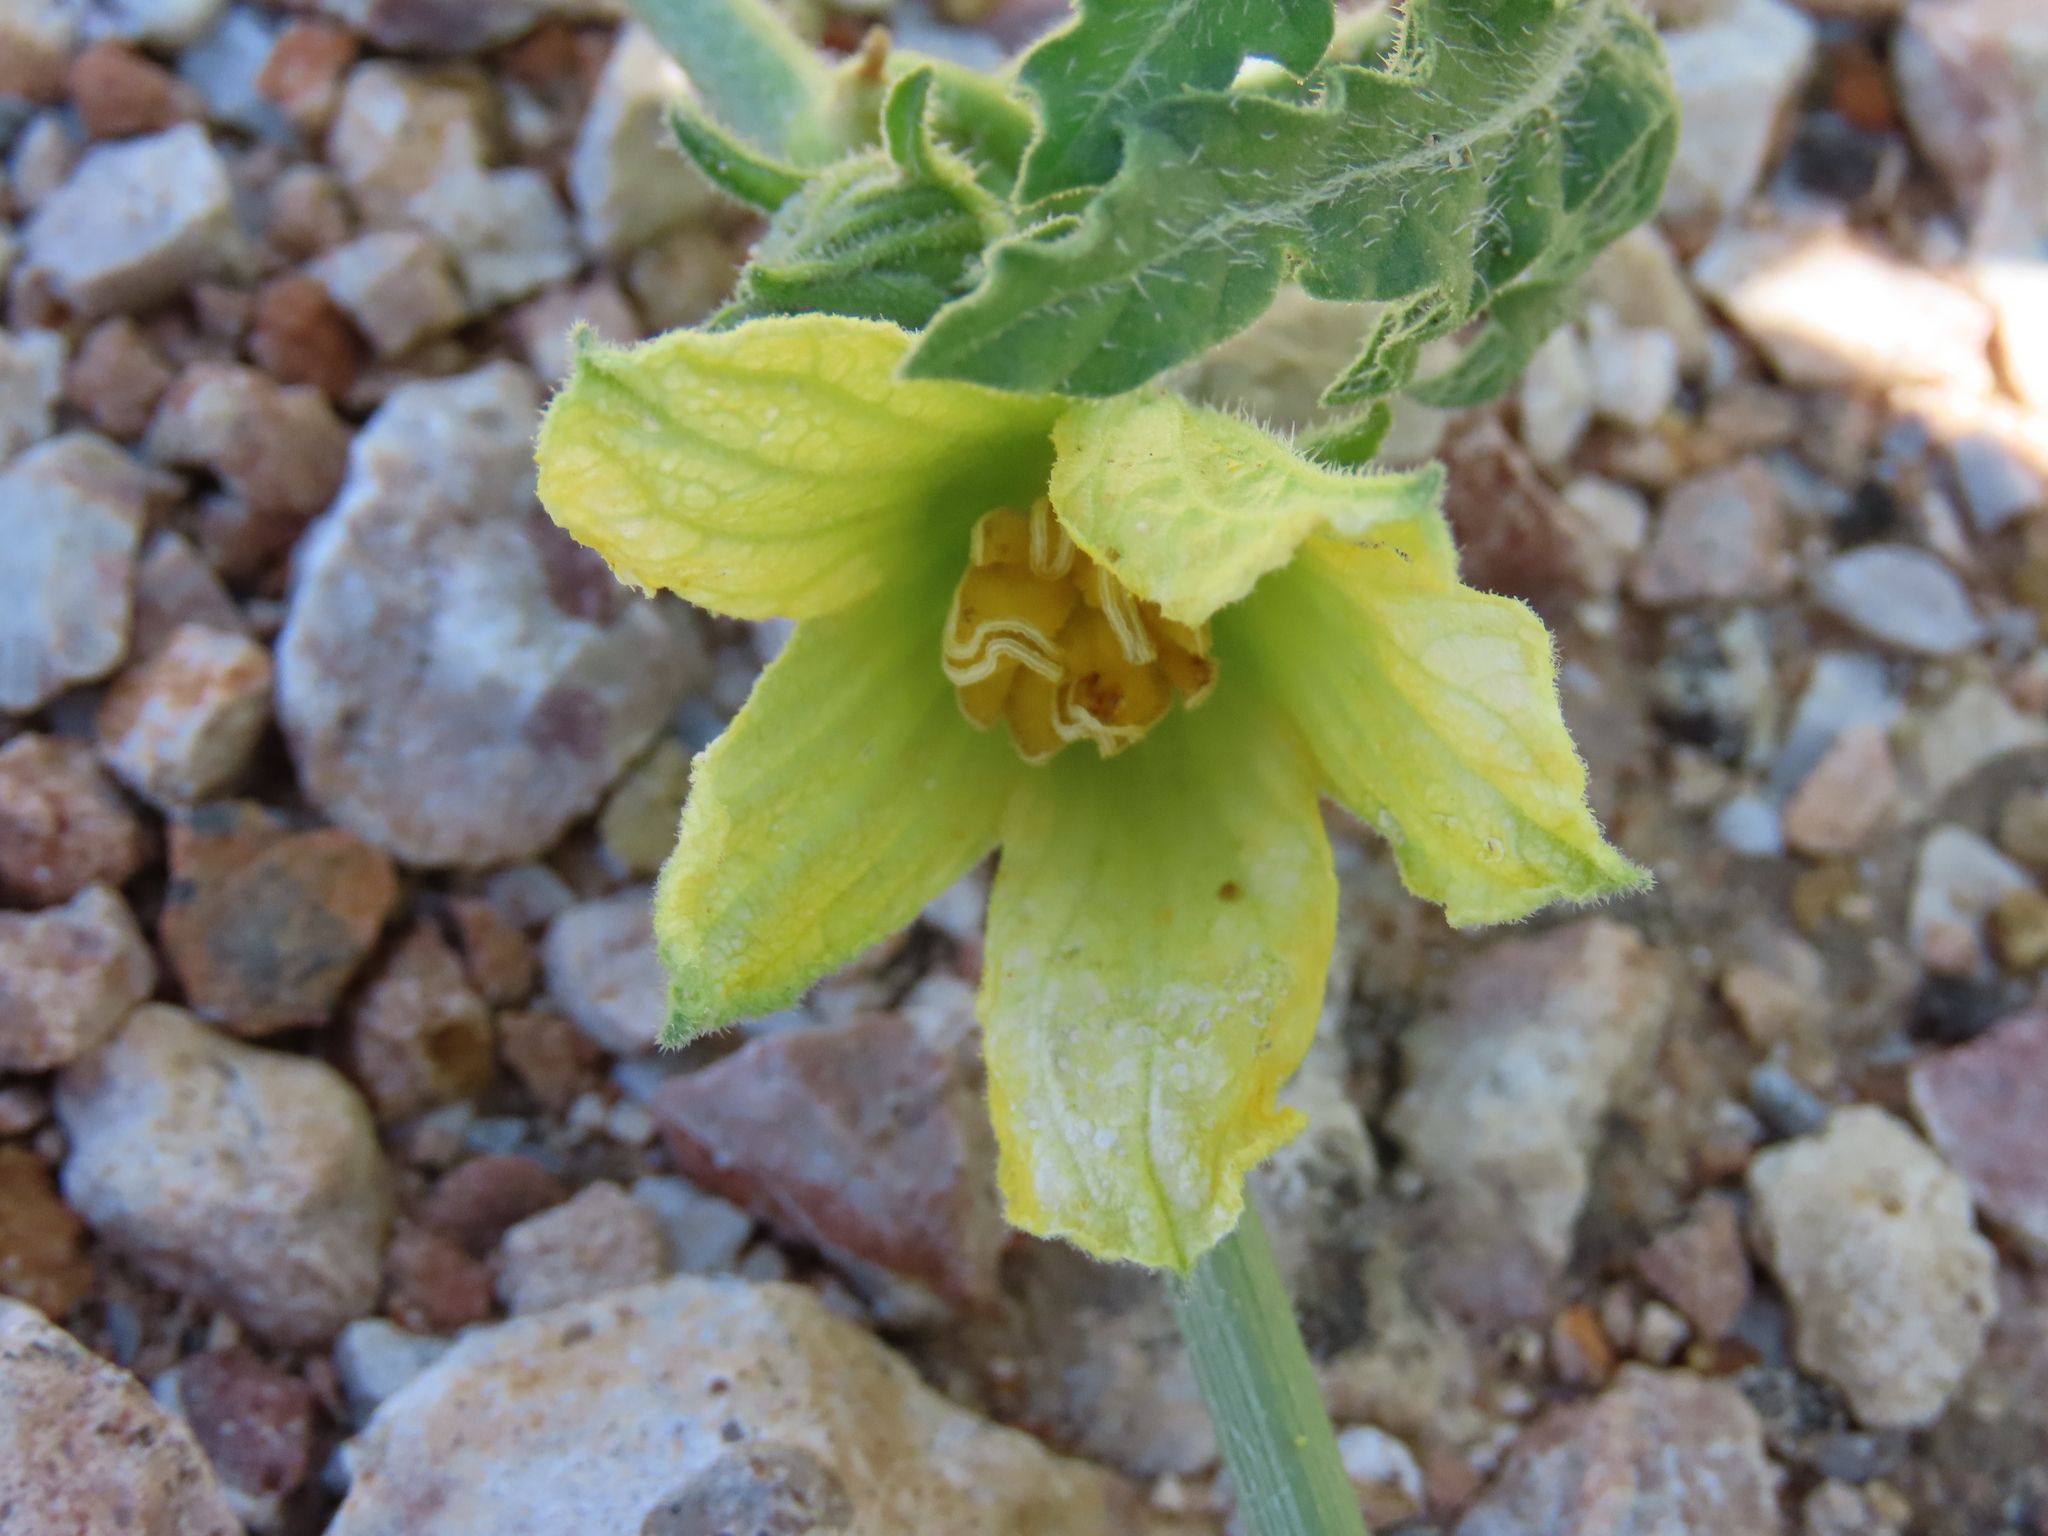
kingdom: Plantae
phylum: Tracheophyta
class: Magnoliopsida
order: Cucurbitales
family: Cucurbitaceae
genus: Citrullus
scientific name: Citrullus naudinianus
